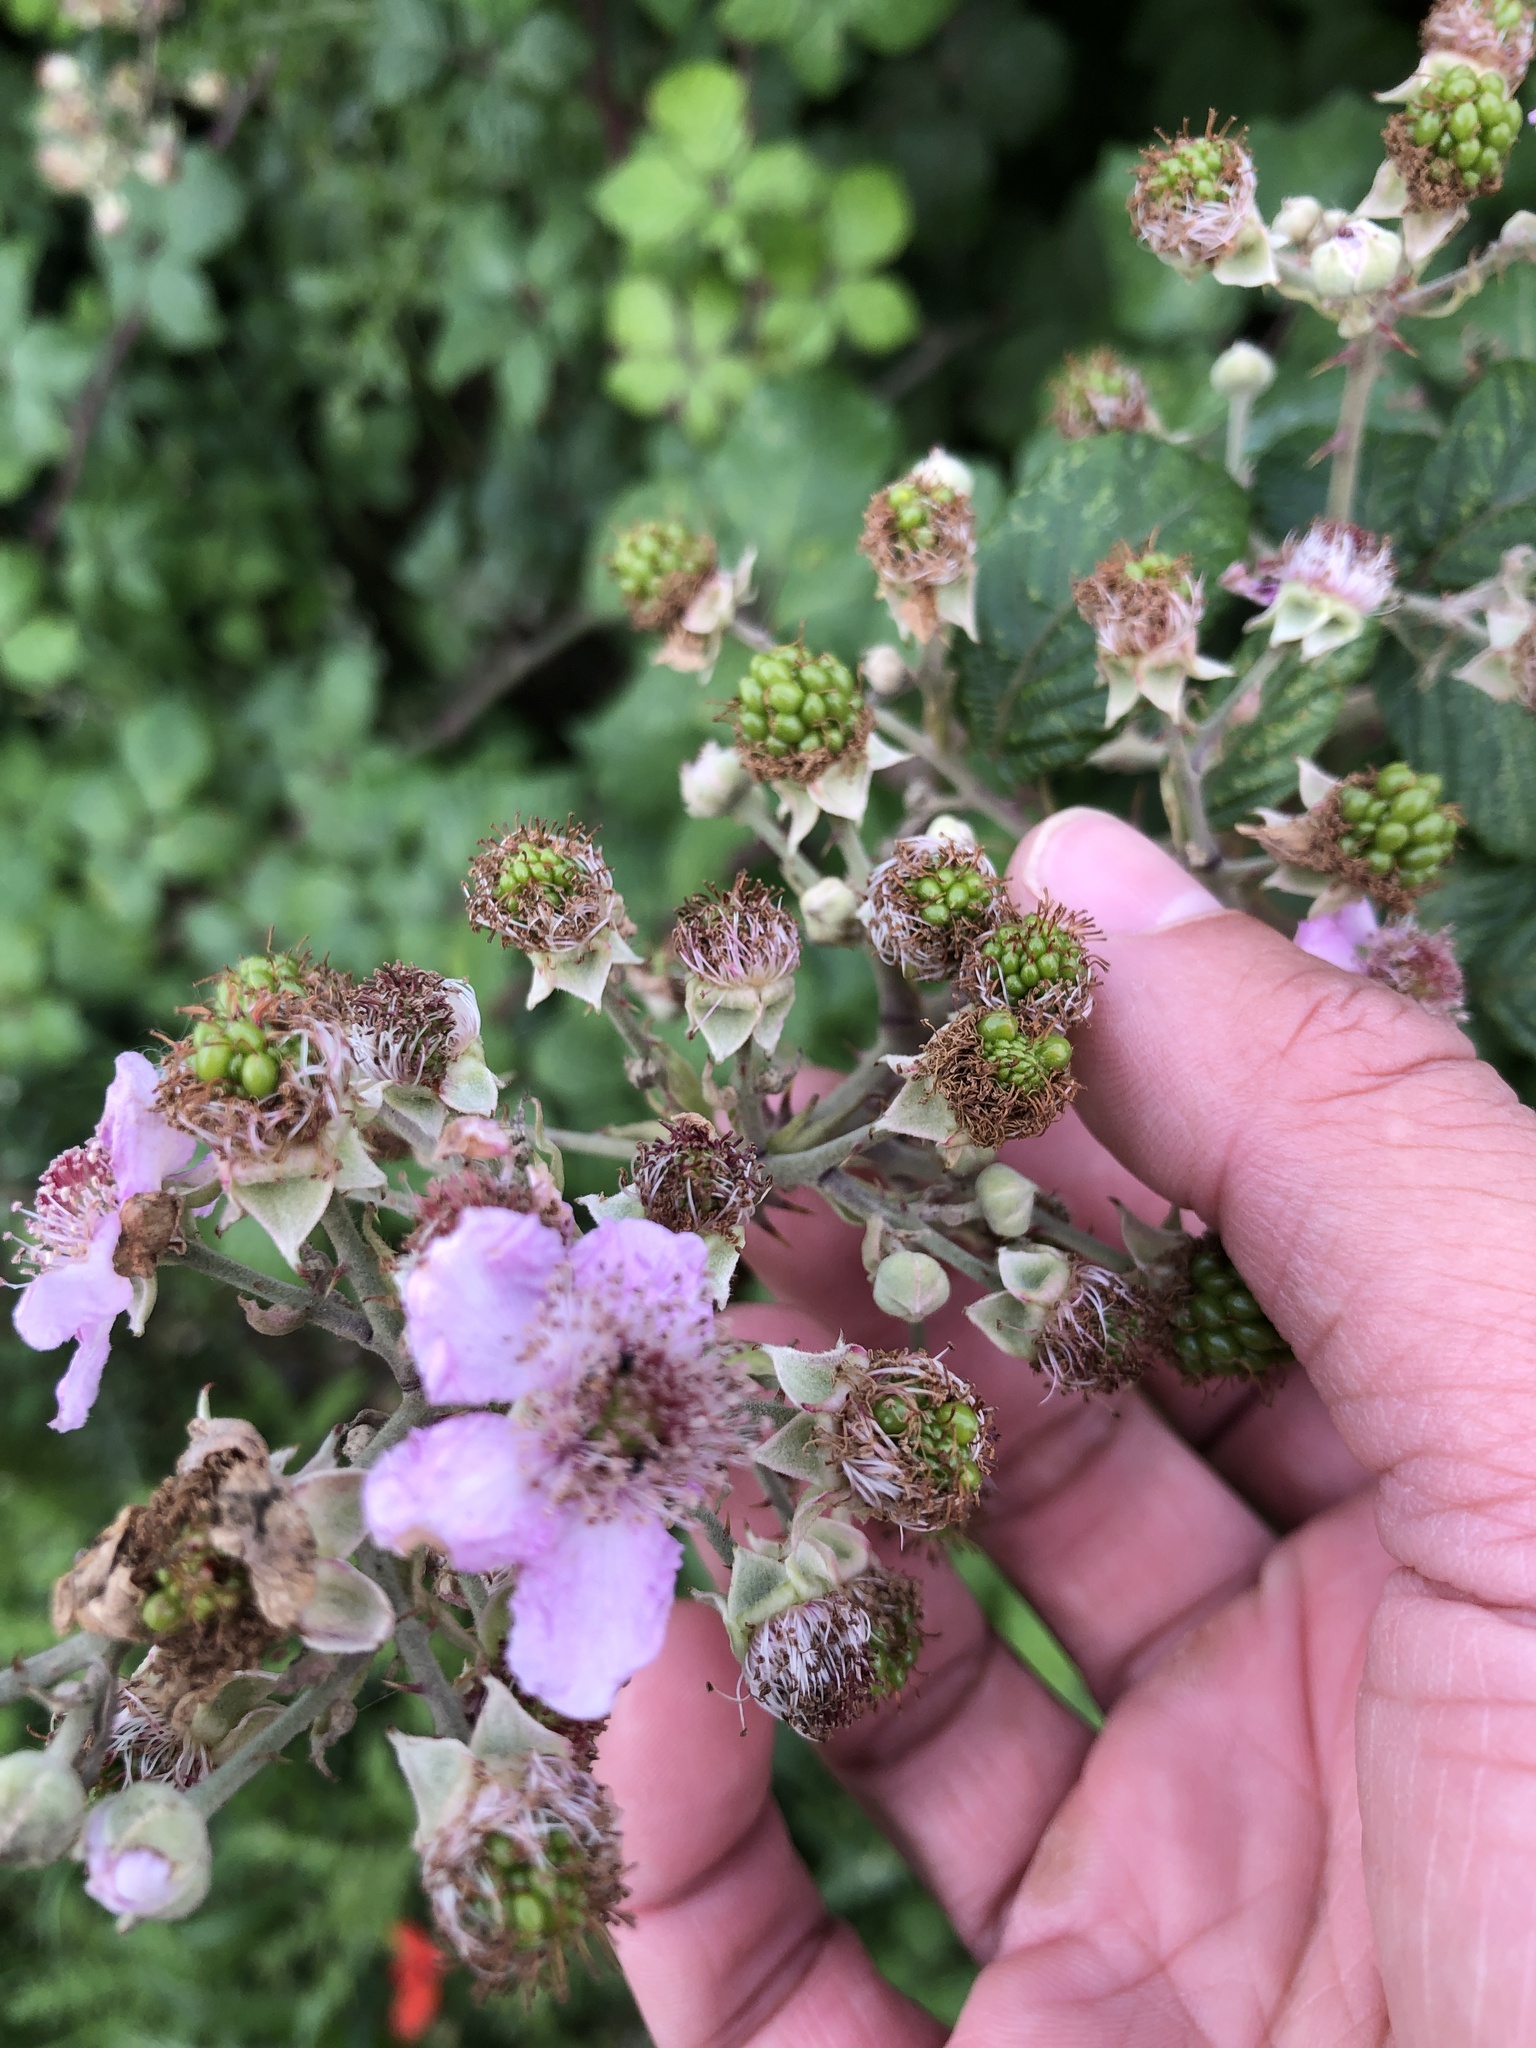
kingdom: Plantae
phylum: Tracheophyta
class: Magnoliopsida
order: Rosales
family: Rosaceae
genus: Rubus
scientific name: Rubus fruticosus
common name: Blackberry, bramble
